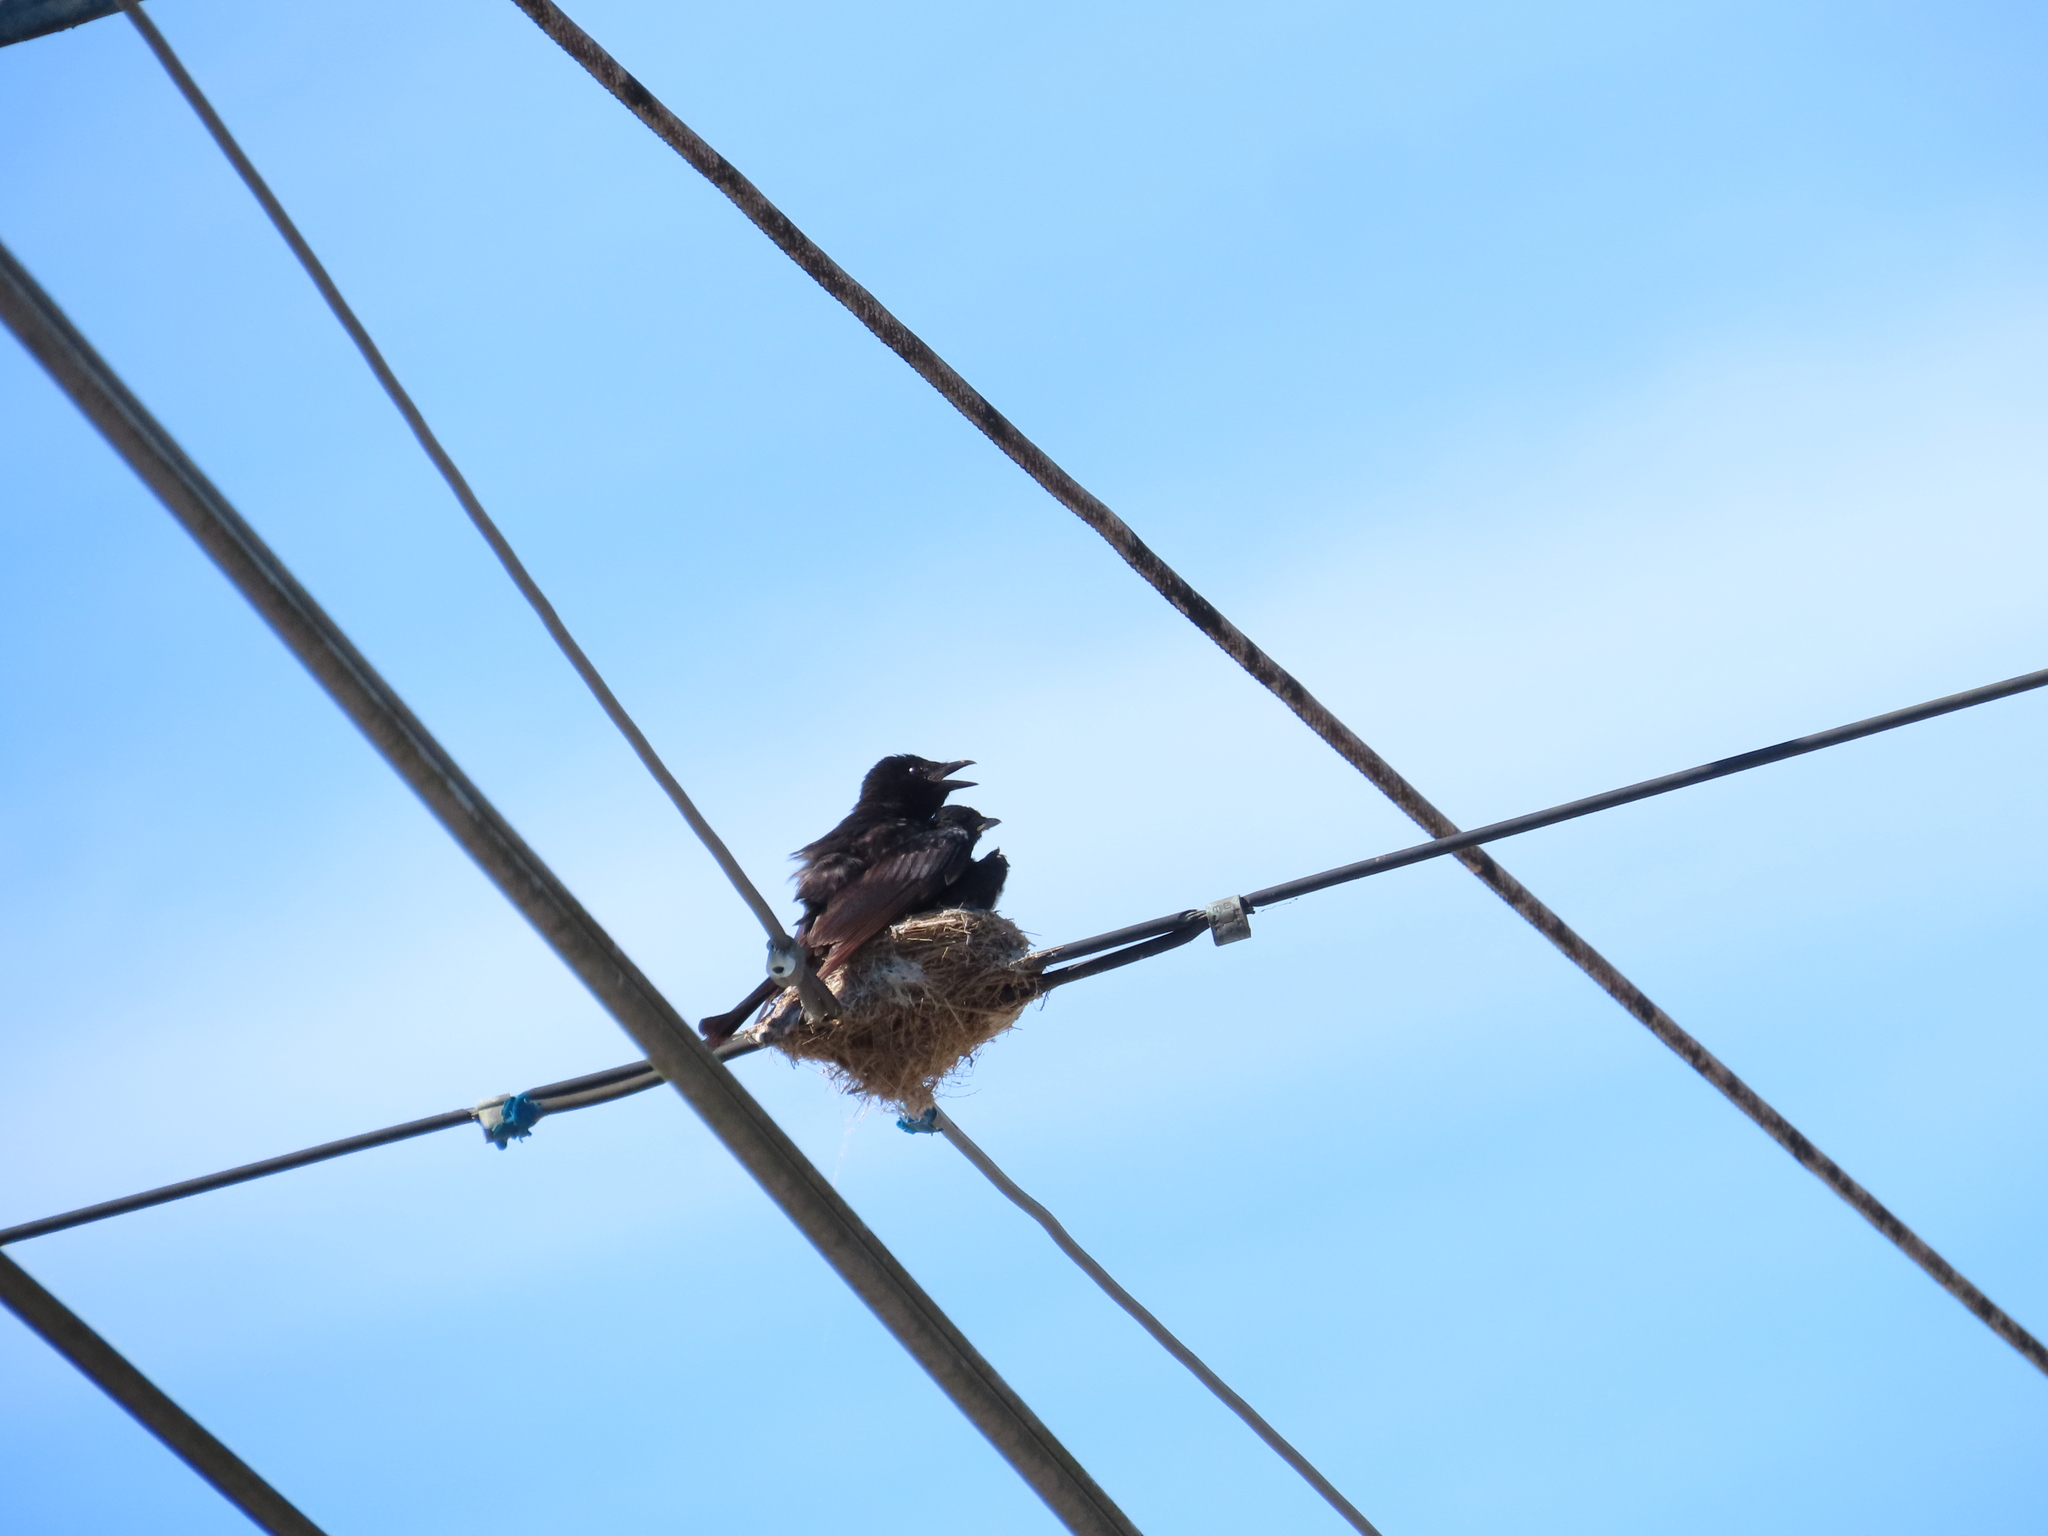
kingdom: Animalia
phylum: Chordata
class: Aves
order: Passeriformes
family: Dicruridae
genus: Dicrurus
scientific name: Dicrurus macrocercus
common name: Black drongo
